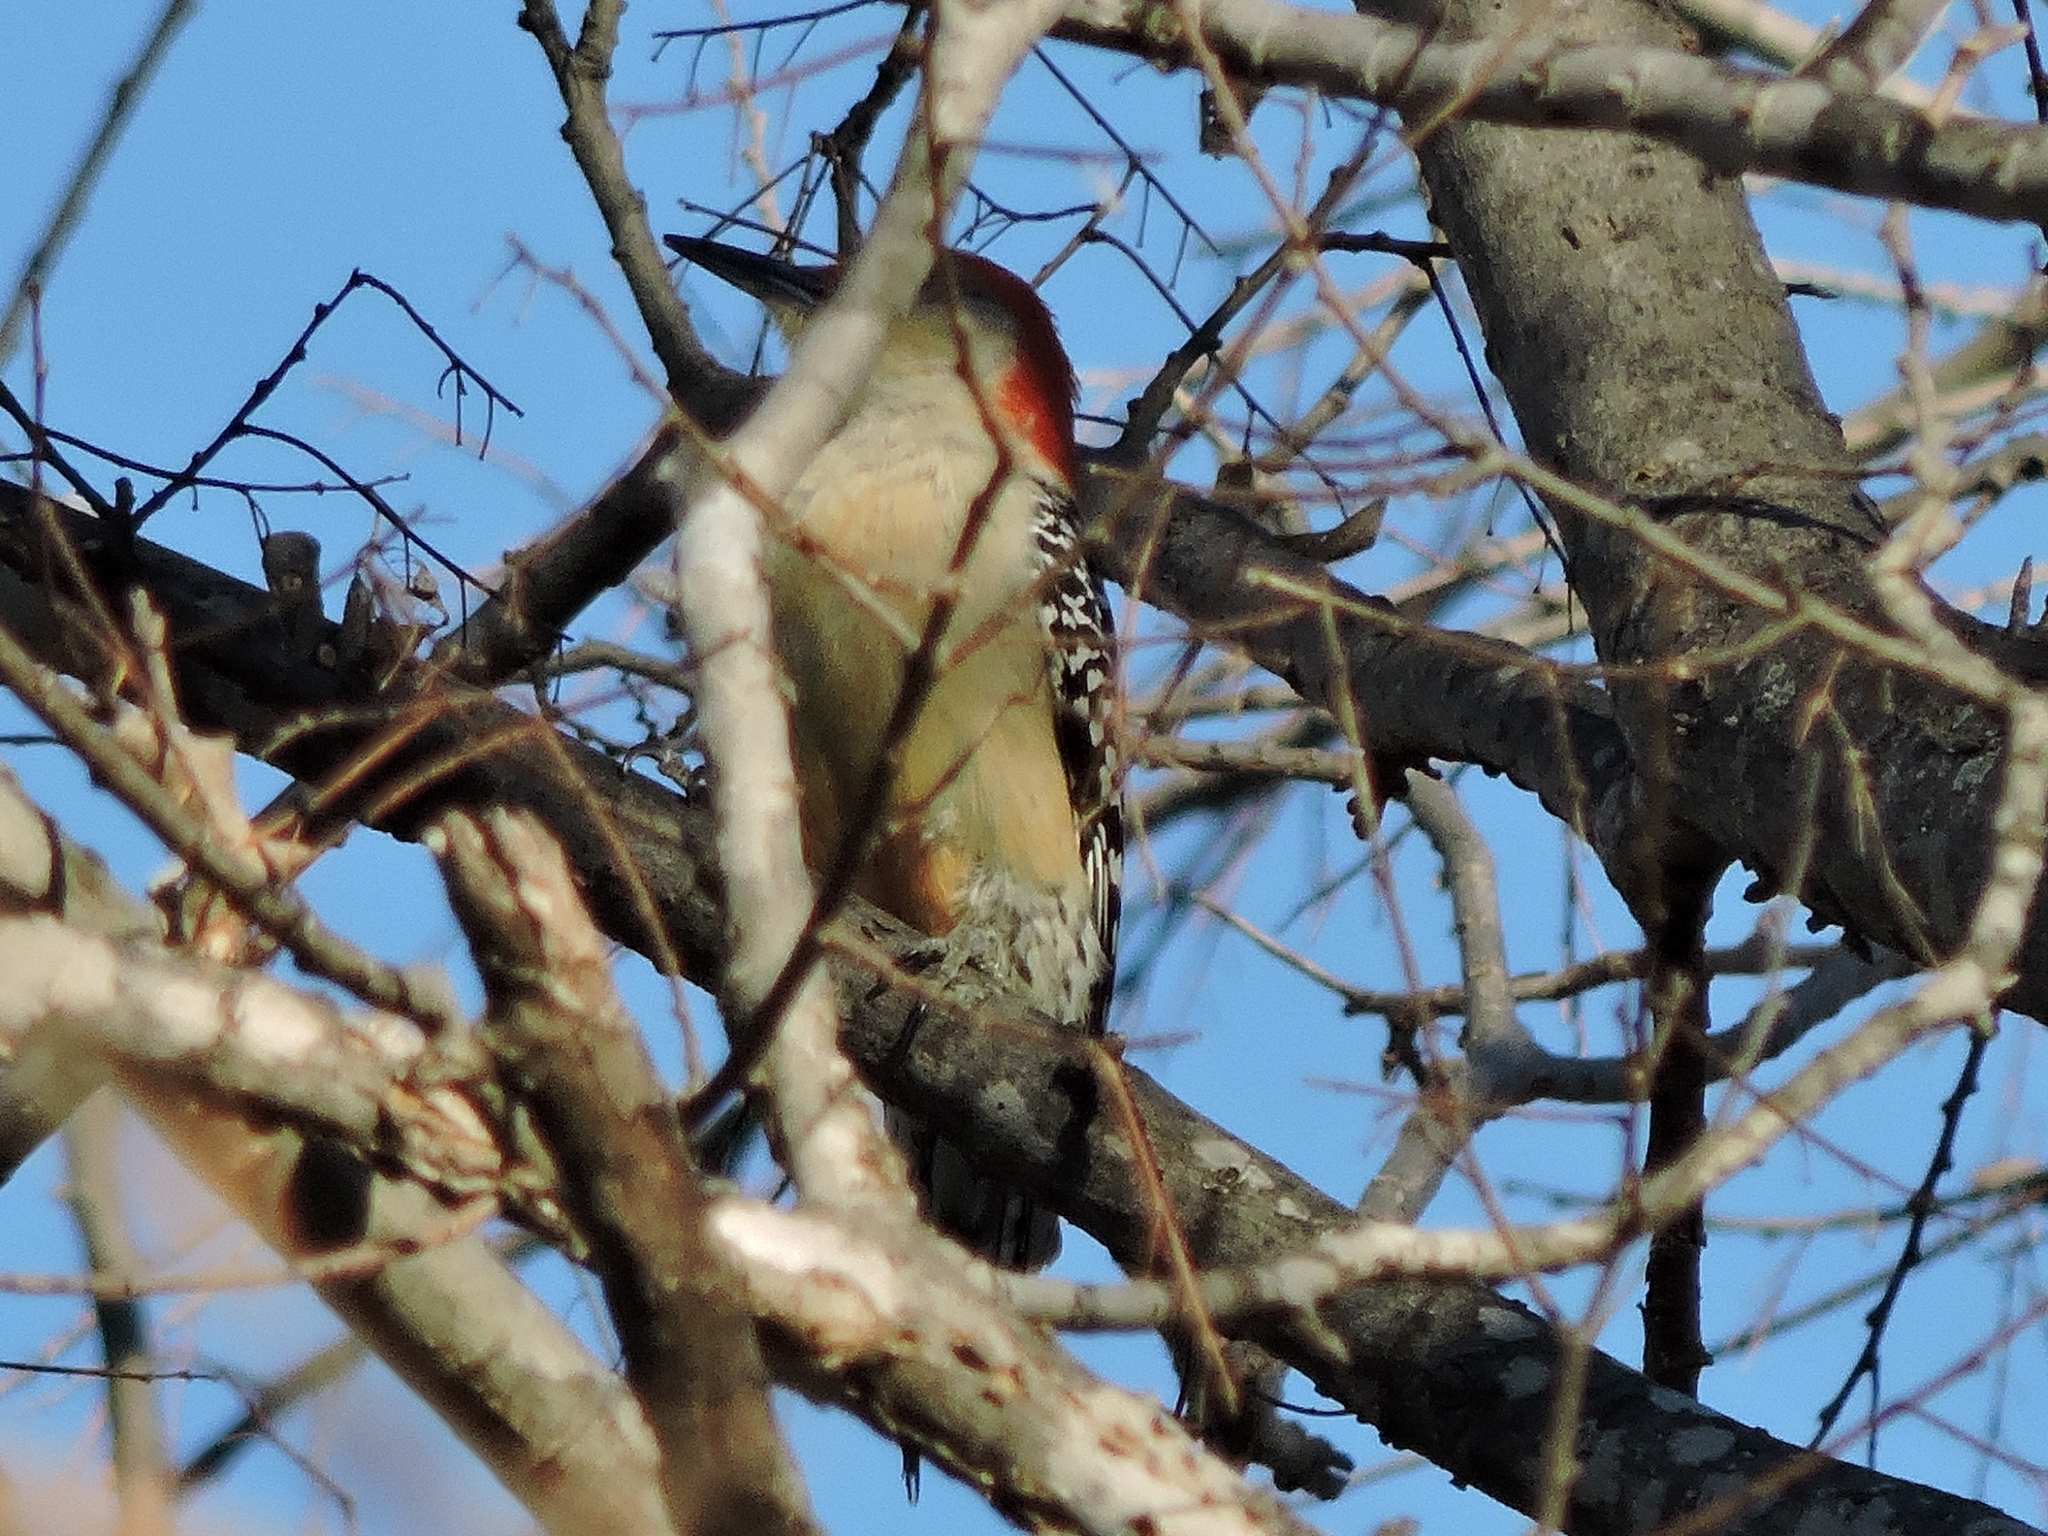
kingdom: Animalia
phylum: Chordata
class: Aves
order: Piciformes
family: Picidae
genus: Melanerpes
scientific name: Melanerpes carolinus
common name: Red-bellied woodpecker
